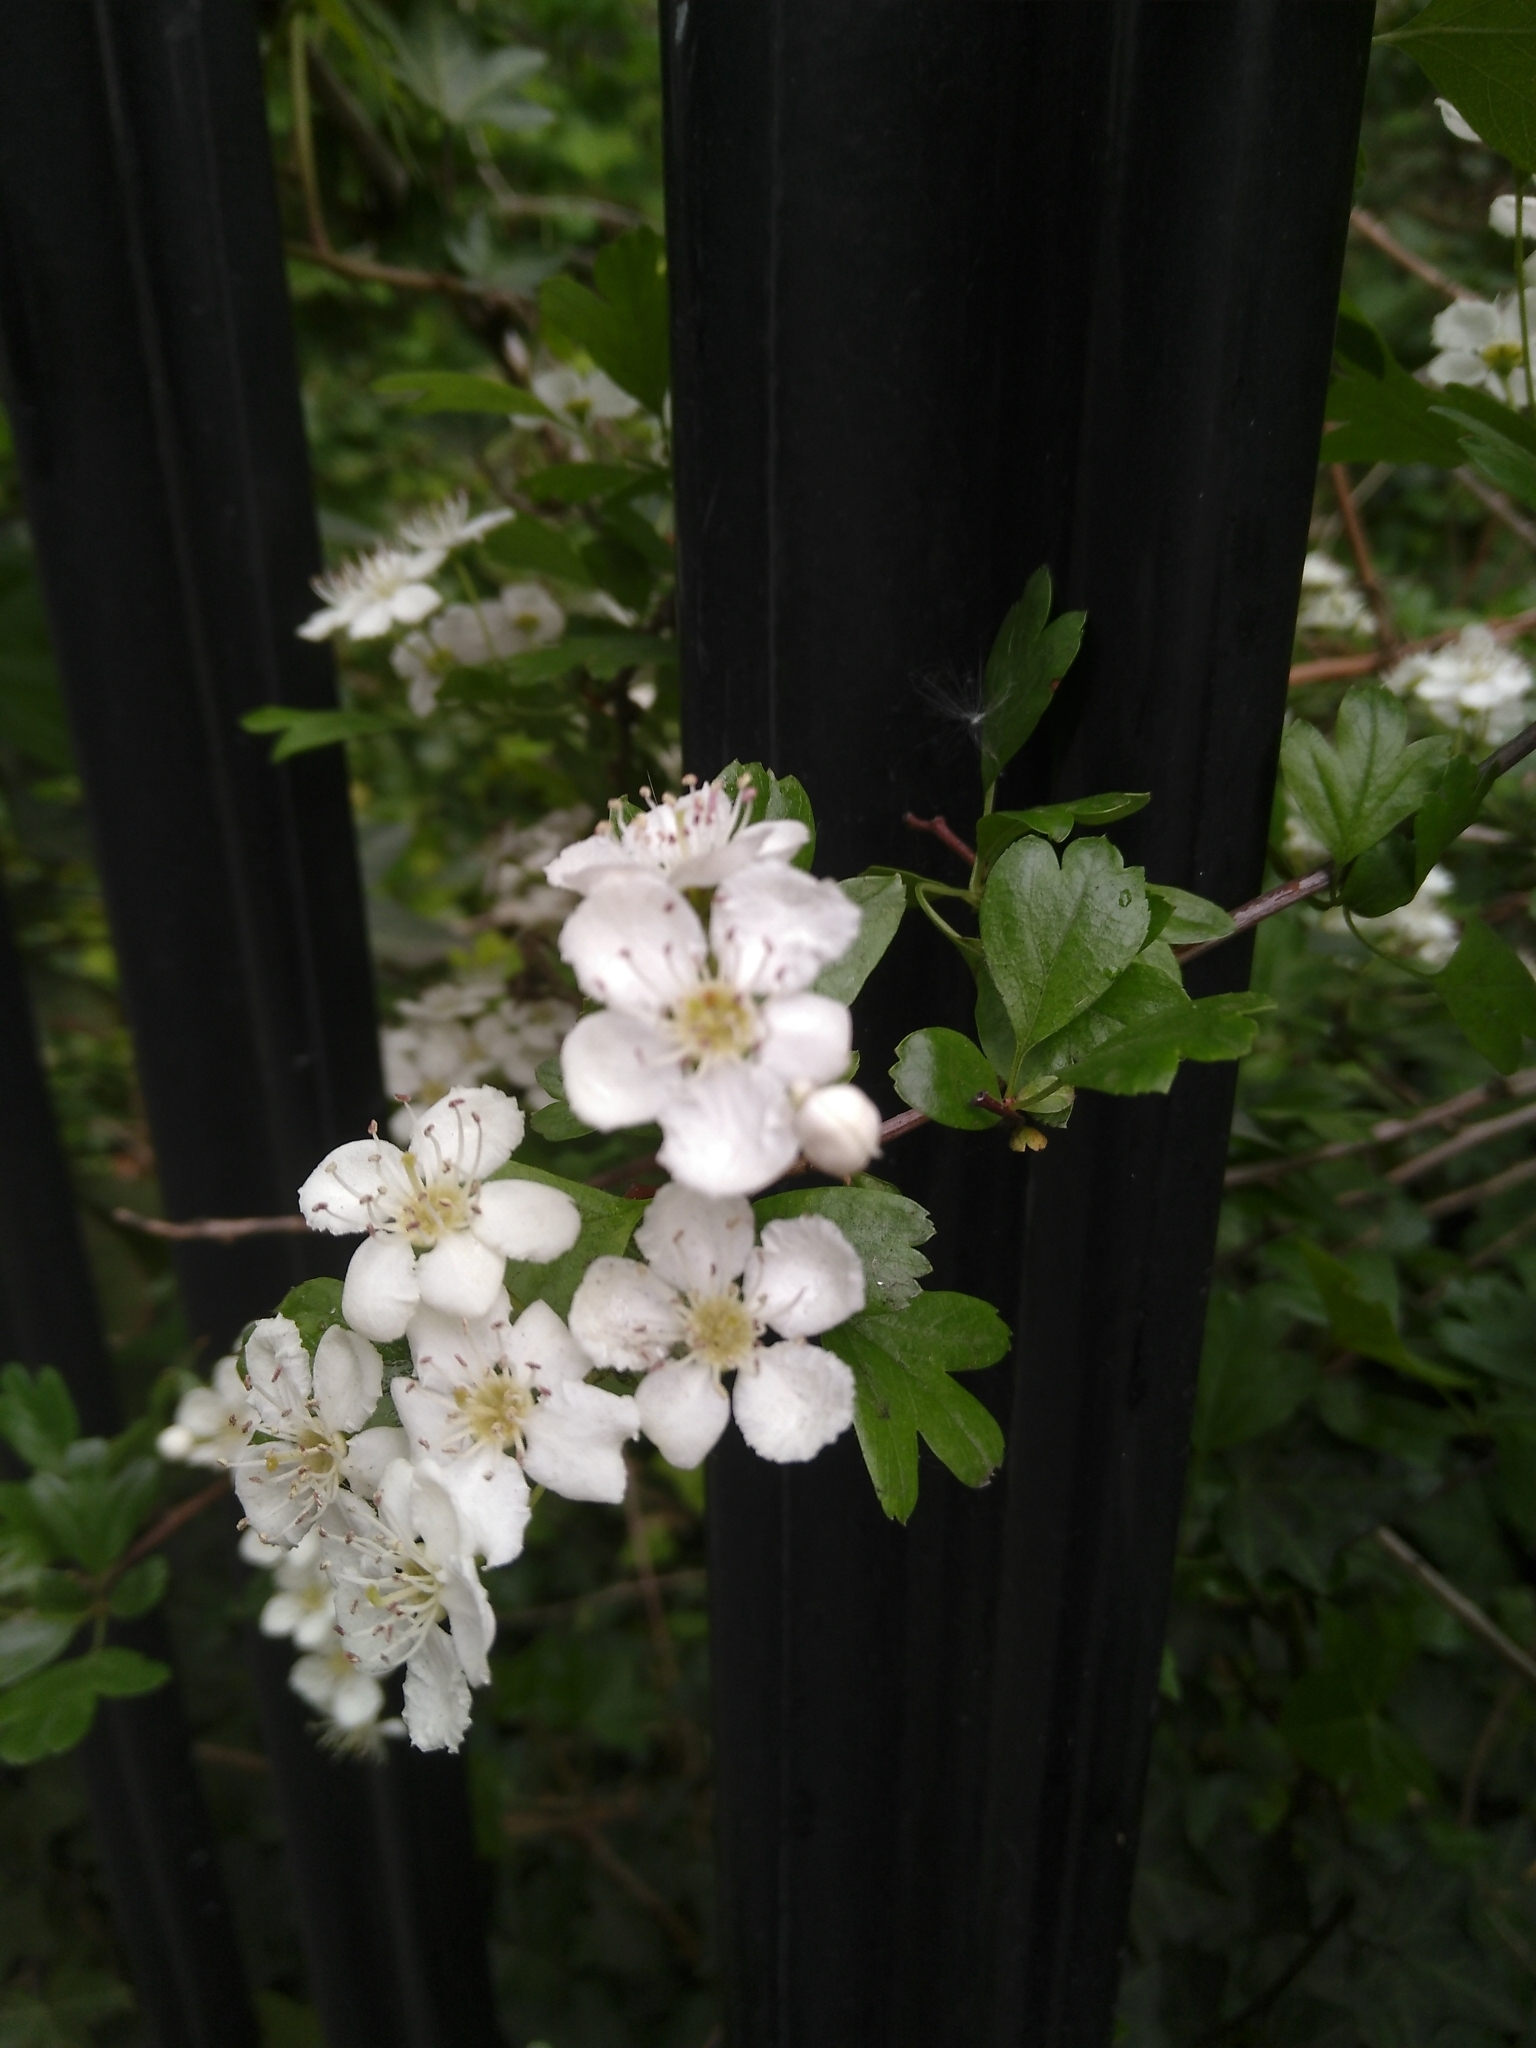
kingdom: Plantae
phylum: Tracheophyta
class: Magnoliopsida
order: Rosales
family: Rosaceae
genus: Crataegus
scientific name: Crataegus monogyna
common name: Hawthorn
